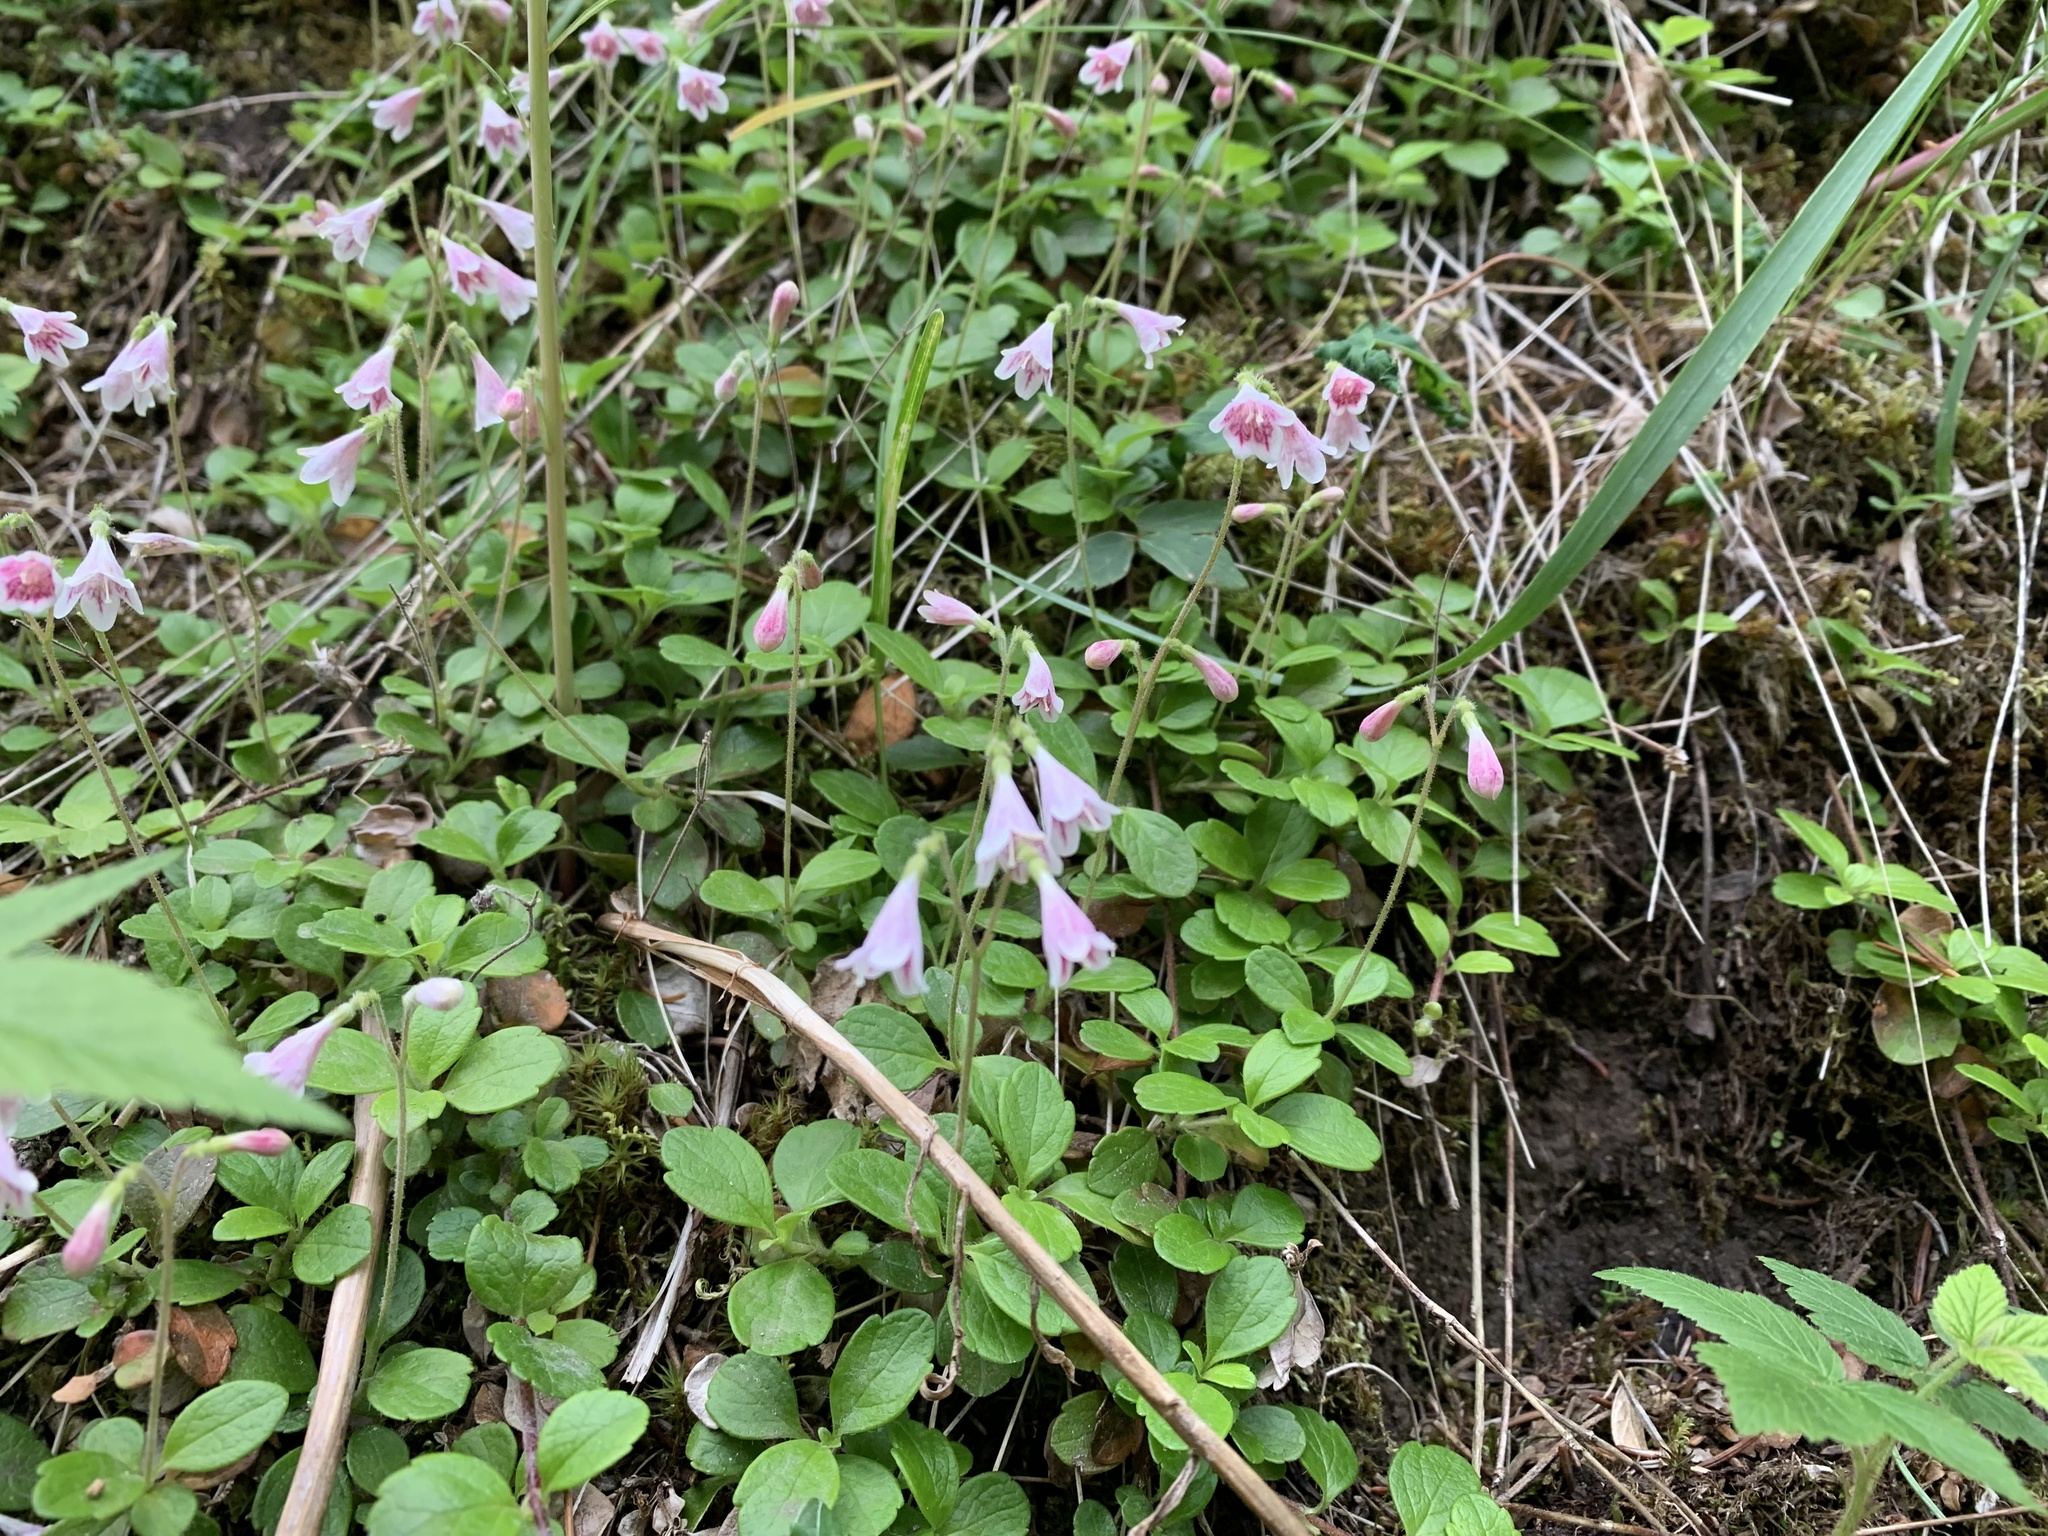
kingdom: Plantae
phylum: Tracheophyta
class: Magnoliopsida
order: Dipsacales
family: Caprifoliaceae
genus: Linnaea
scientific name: Linnaea borealis
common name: Twinflower
